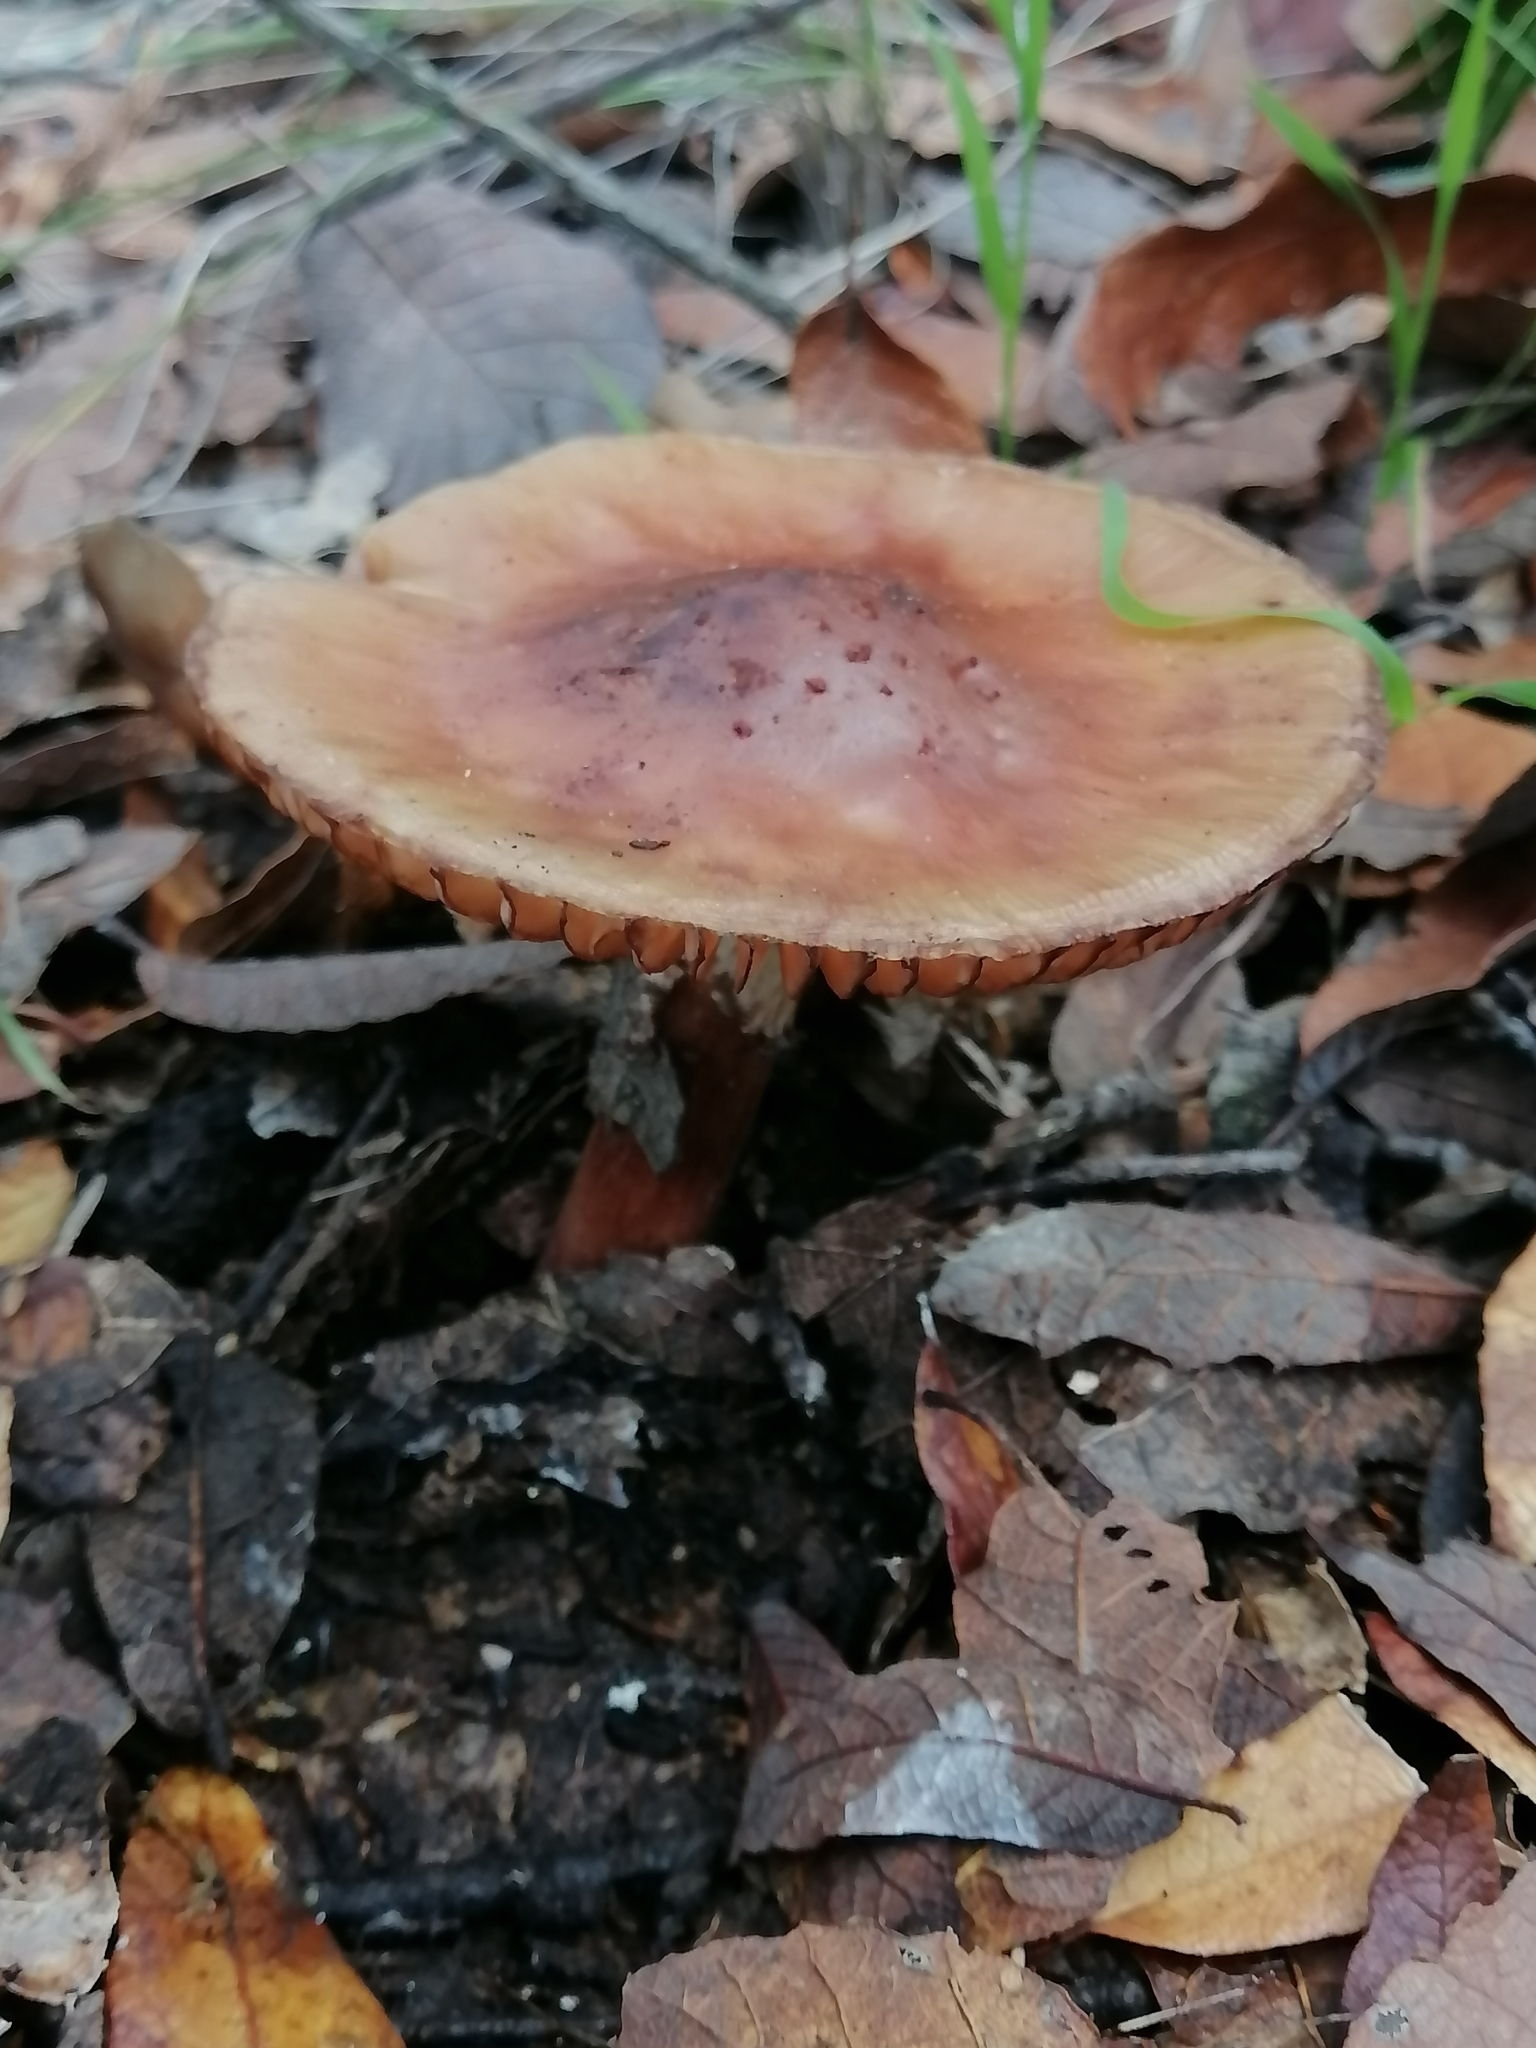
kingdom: Fungi
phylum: Basidiomycota
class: Agaricomycetes
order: Agaricales
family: Amanitaceae
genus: Amanita
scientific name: Amanita brunneolocularis
